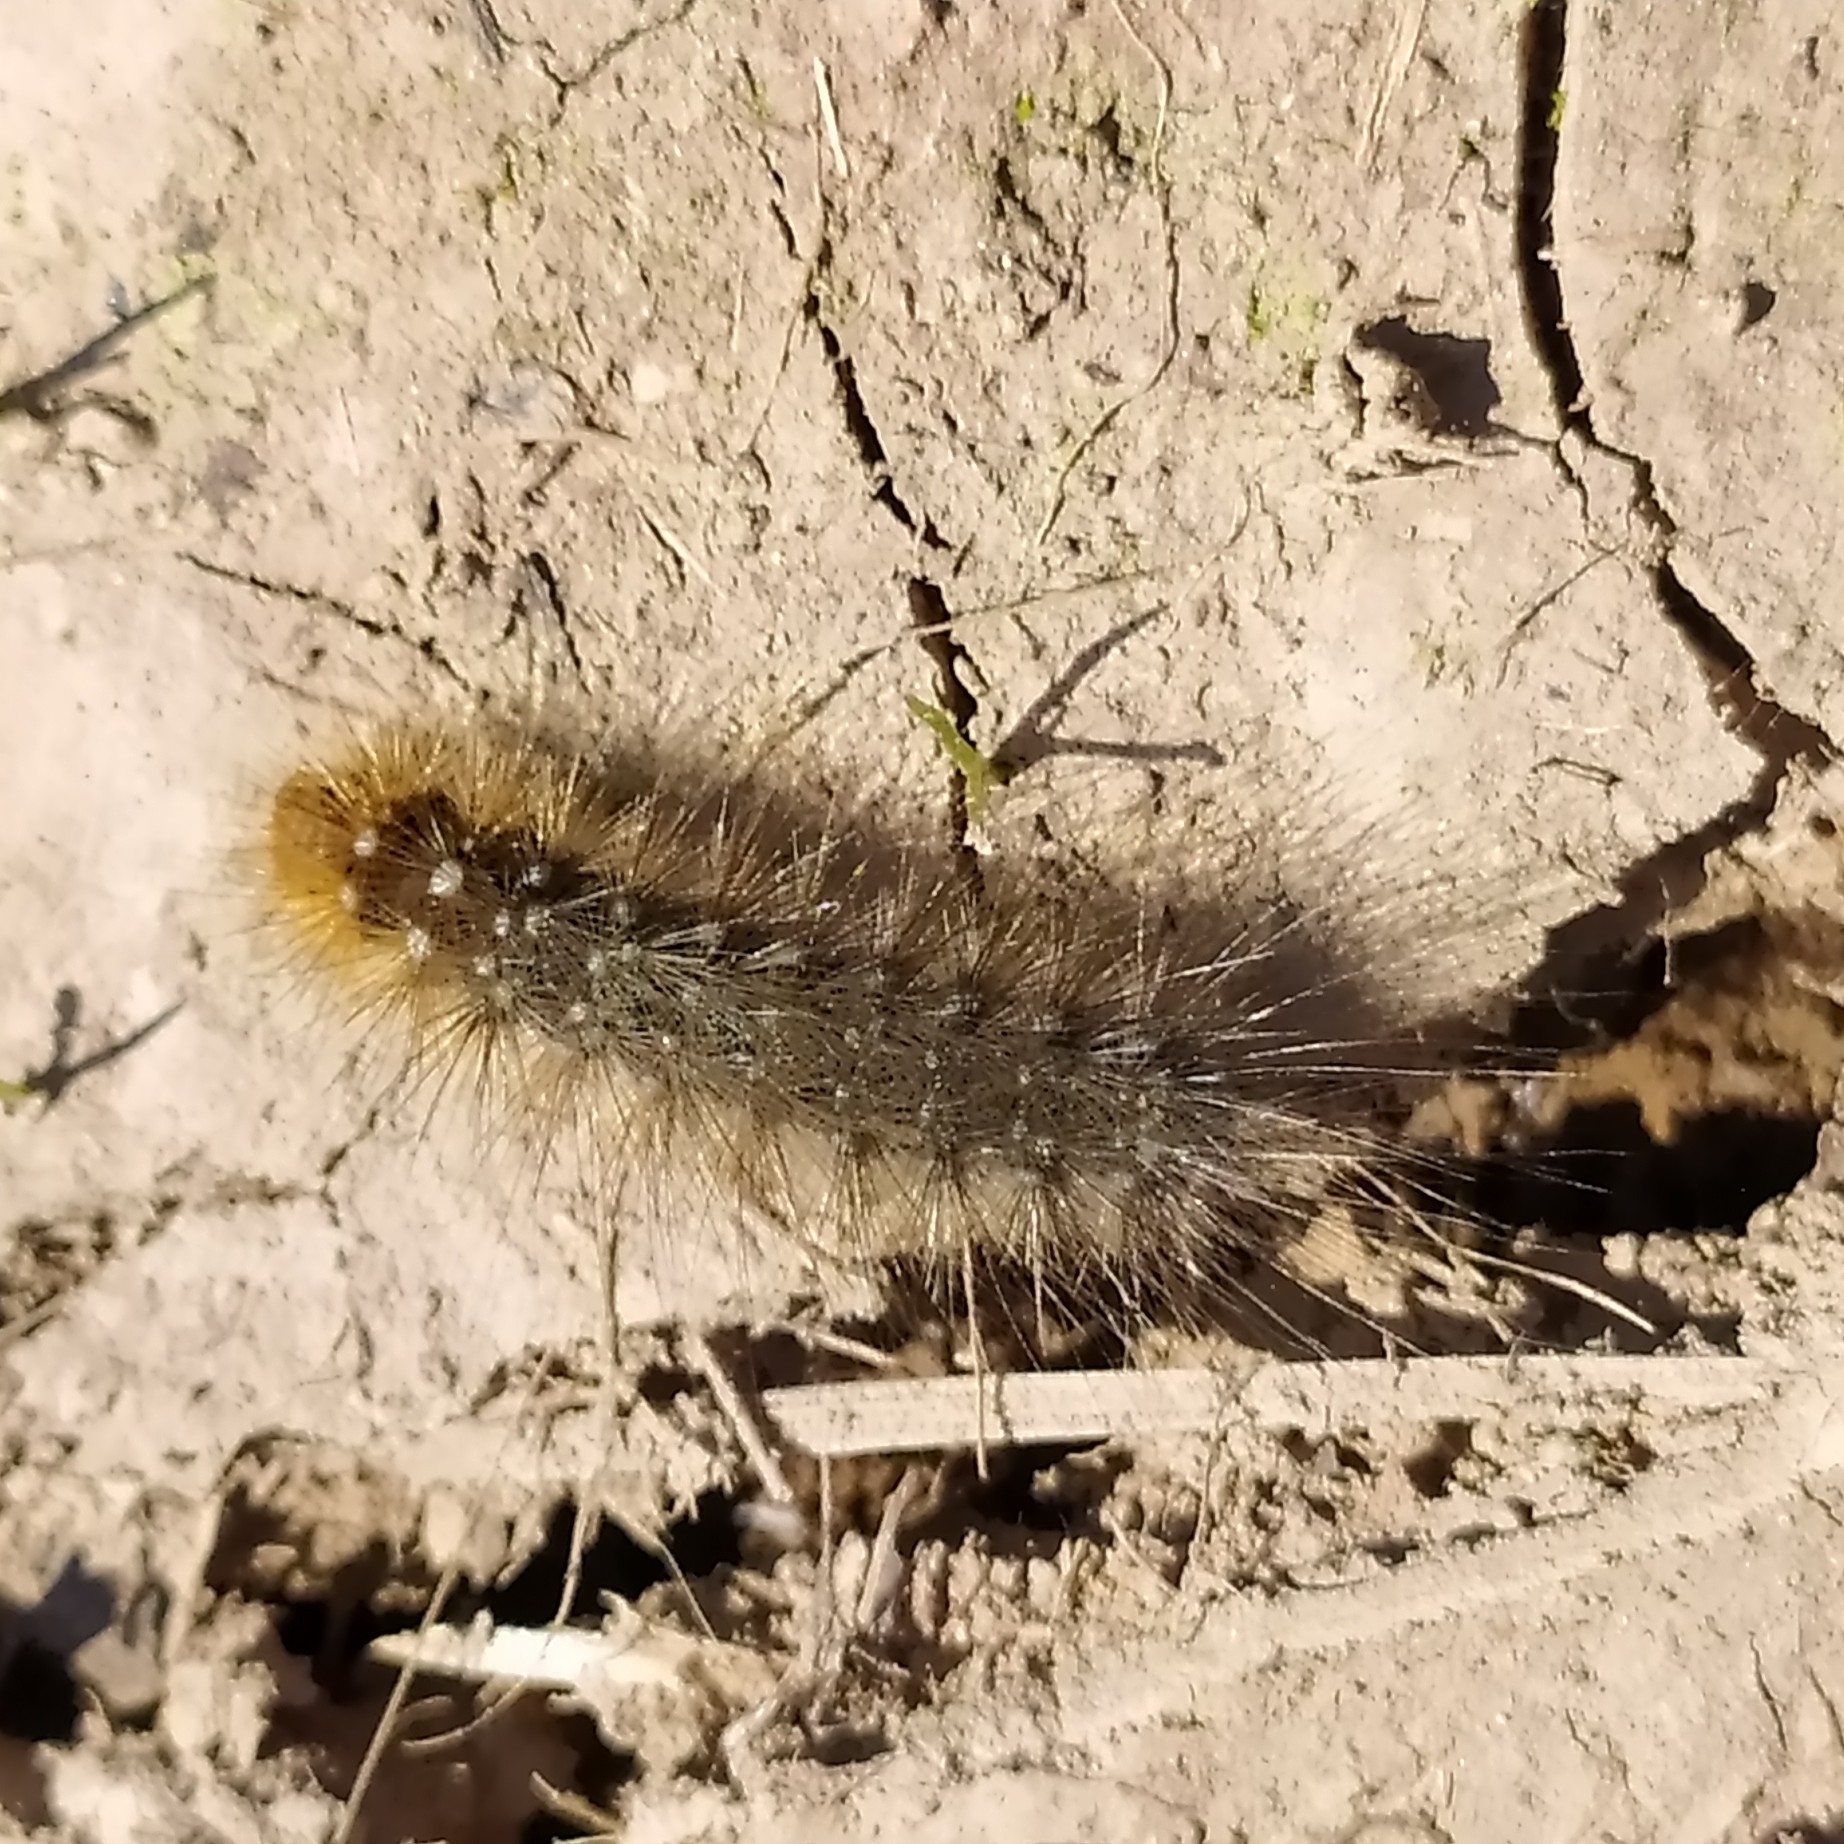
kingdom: Animalia
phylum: Arthropoda
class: Insecta
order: Lepidoptera
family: Erebidae
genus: Arctia
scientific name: Arctia caja
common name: Garden tiger
